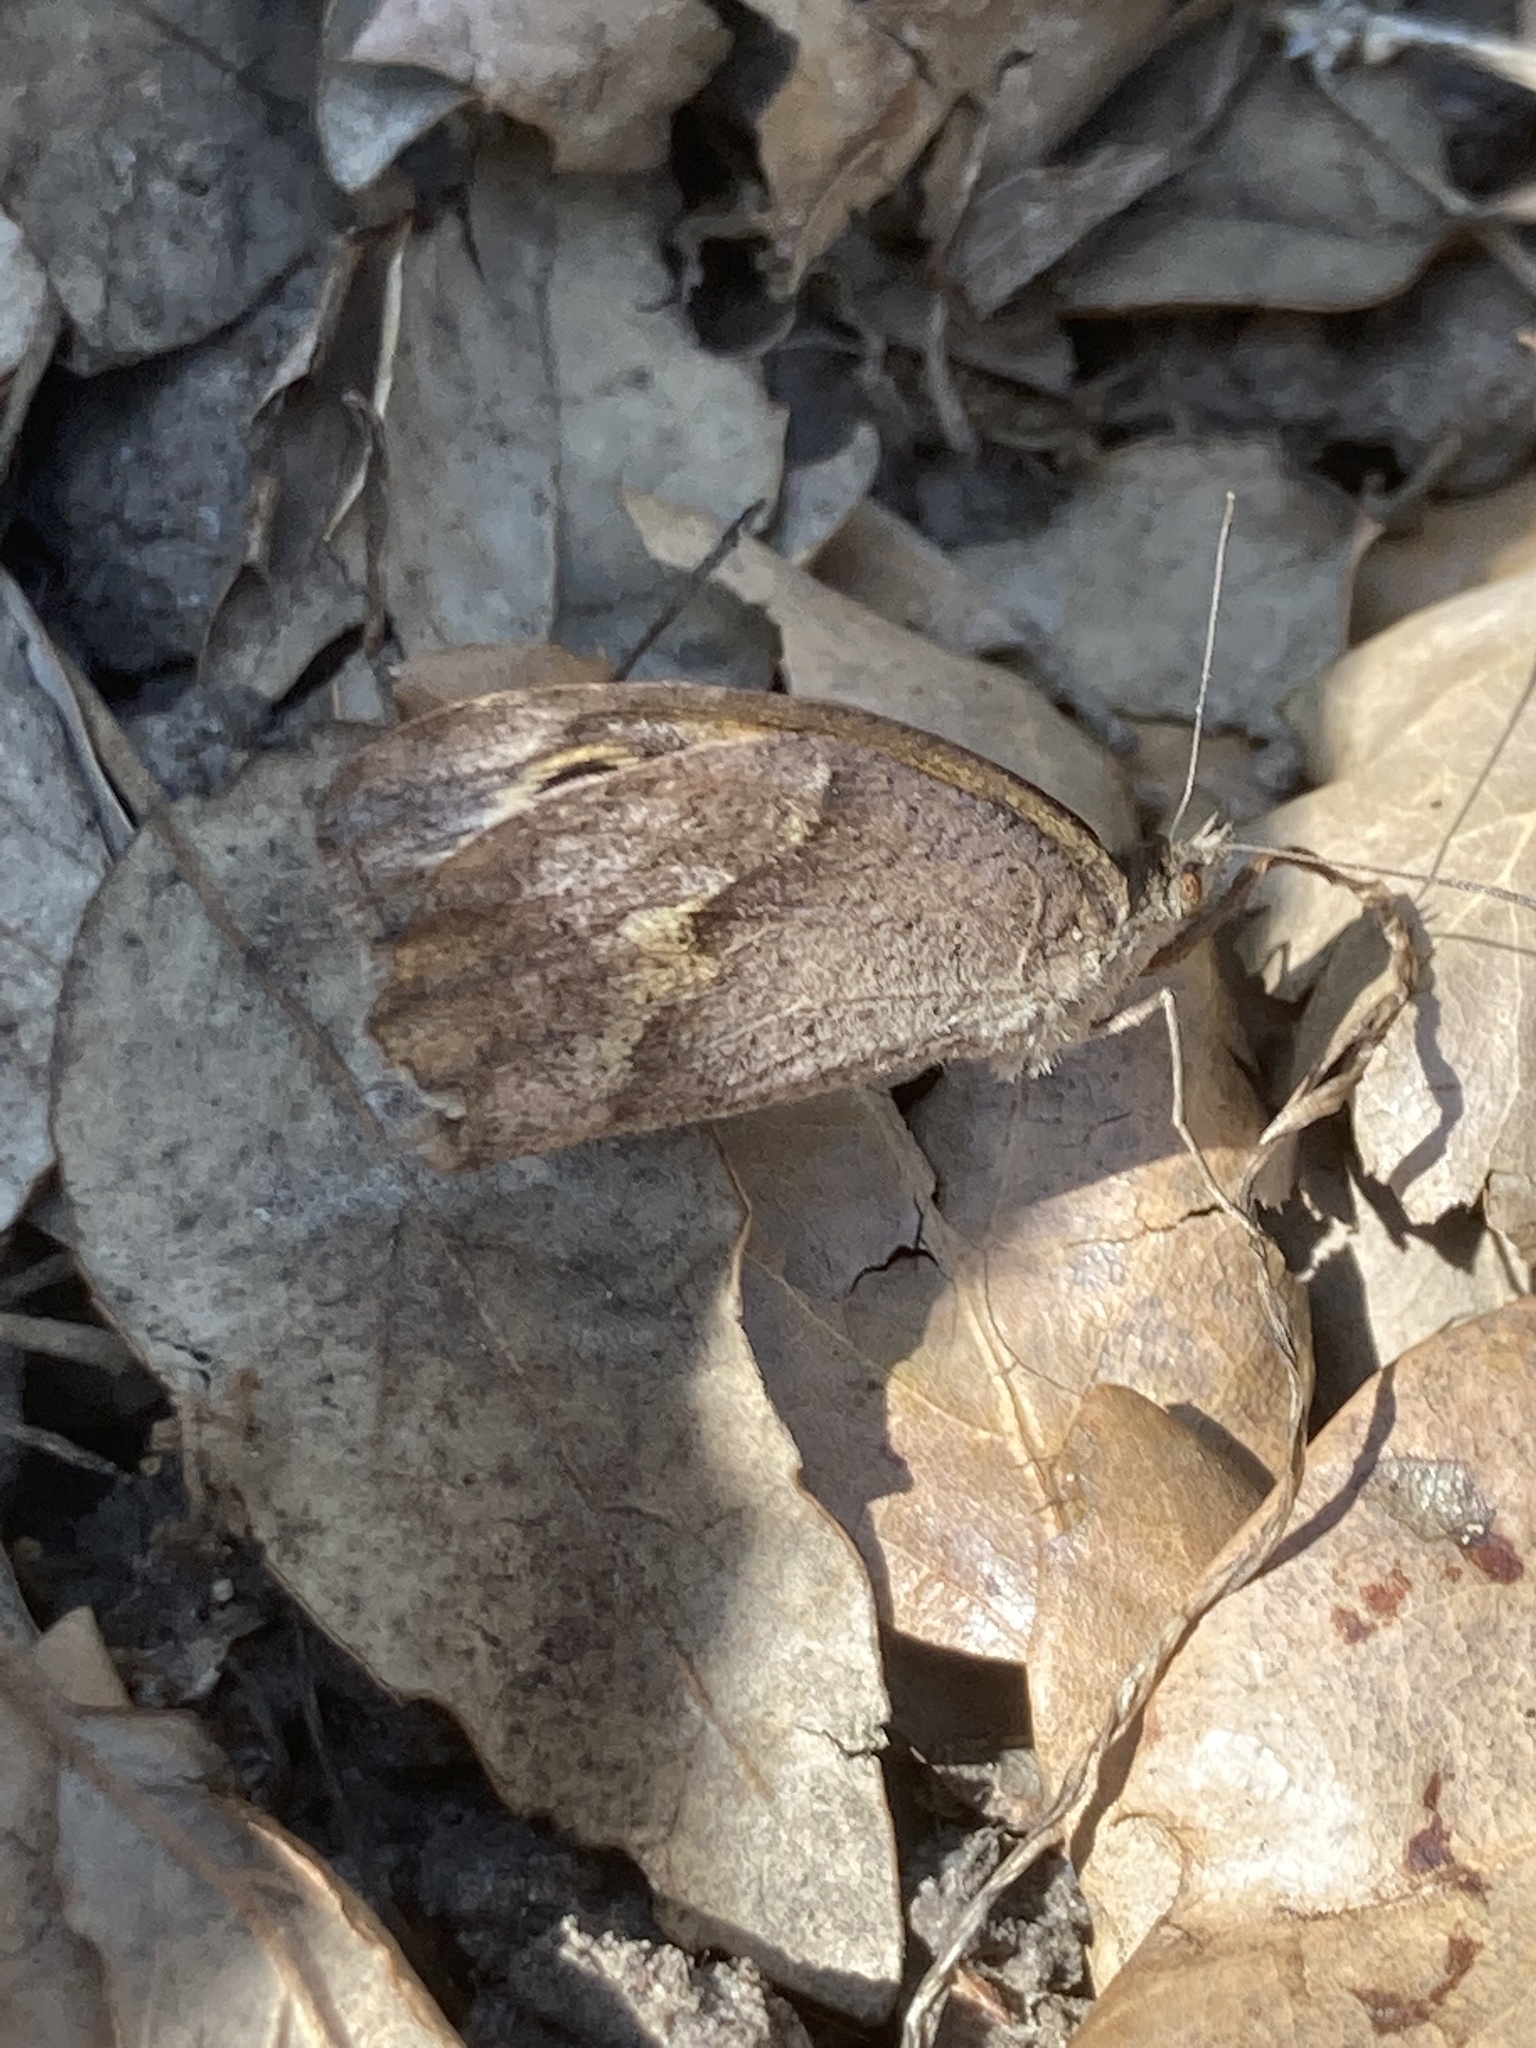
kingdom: Animalia
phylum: Arthropoda
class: Insecta
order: Lepidoptera
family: Nymphalidae
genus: Maniola
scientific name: Maniola jurtina
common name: Meadow brown
